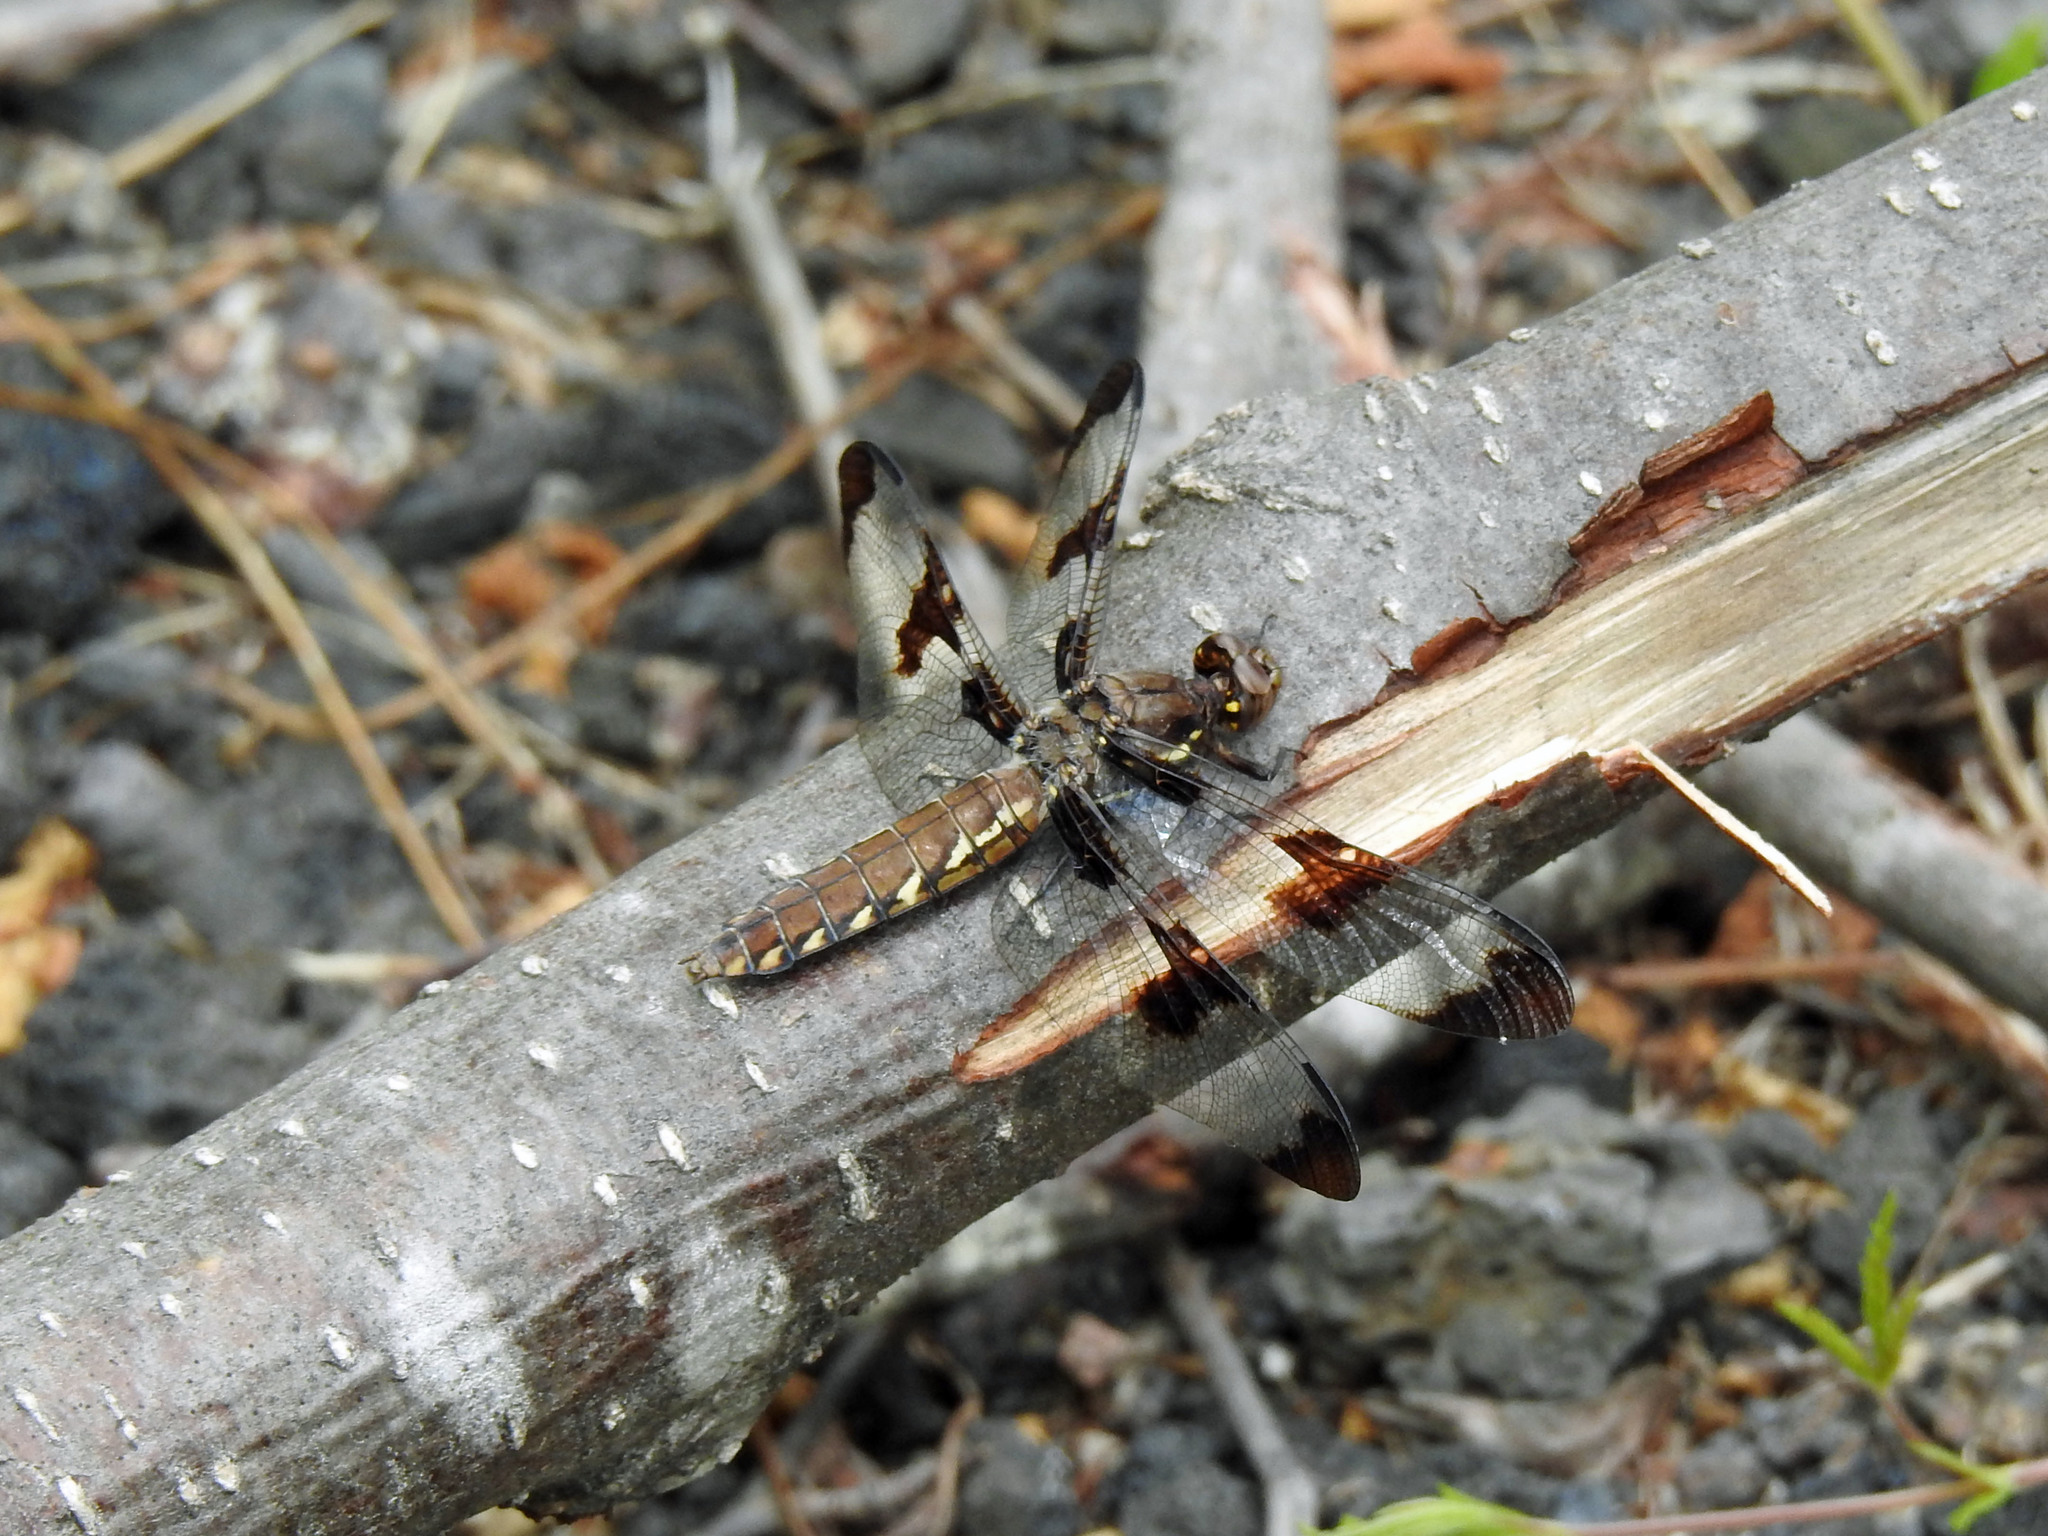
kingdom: Animalia
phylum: Arthropoda
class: Insecta
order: Odonata
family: Libellulidae
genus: Plathemis
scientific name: Plathemis lydia
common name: Common whitetail
